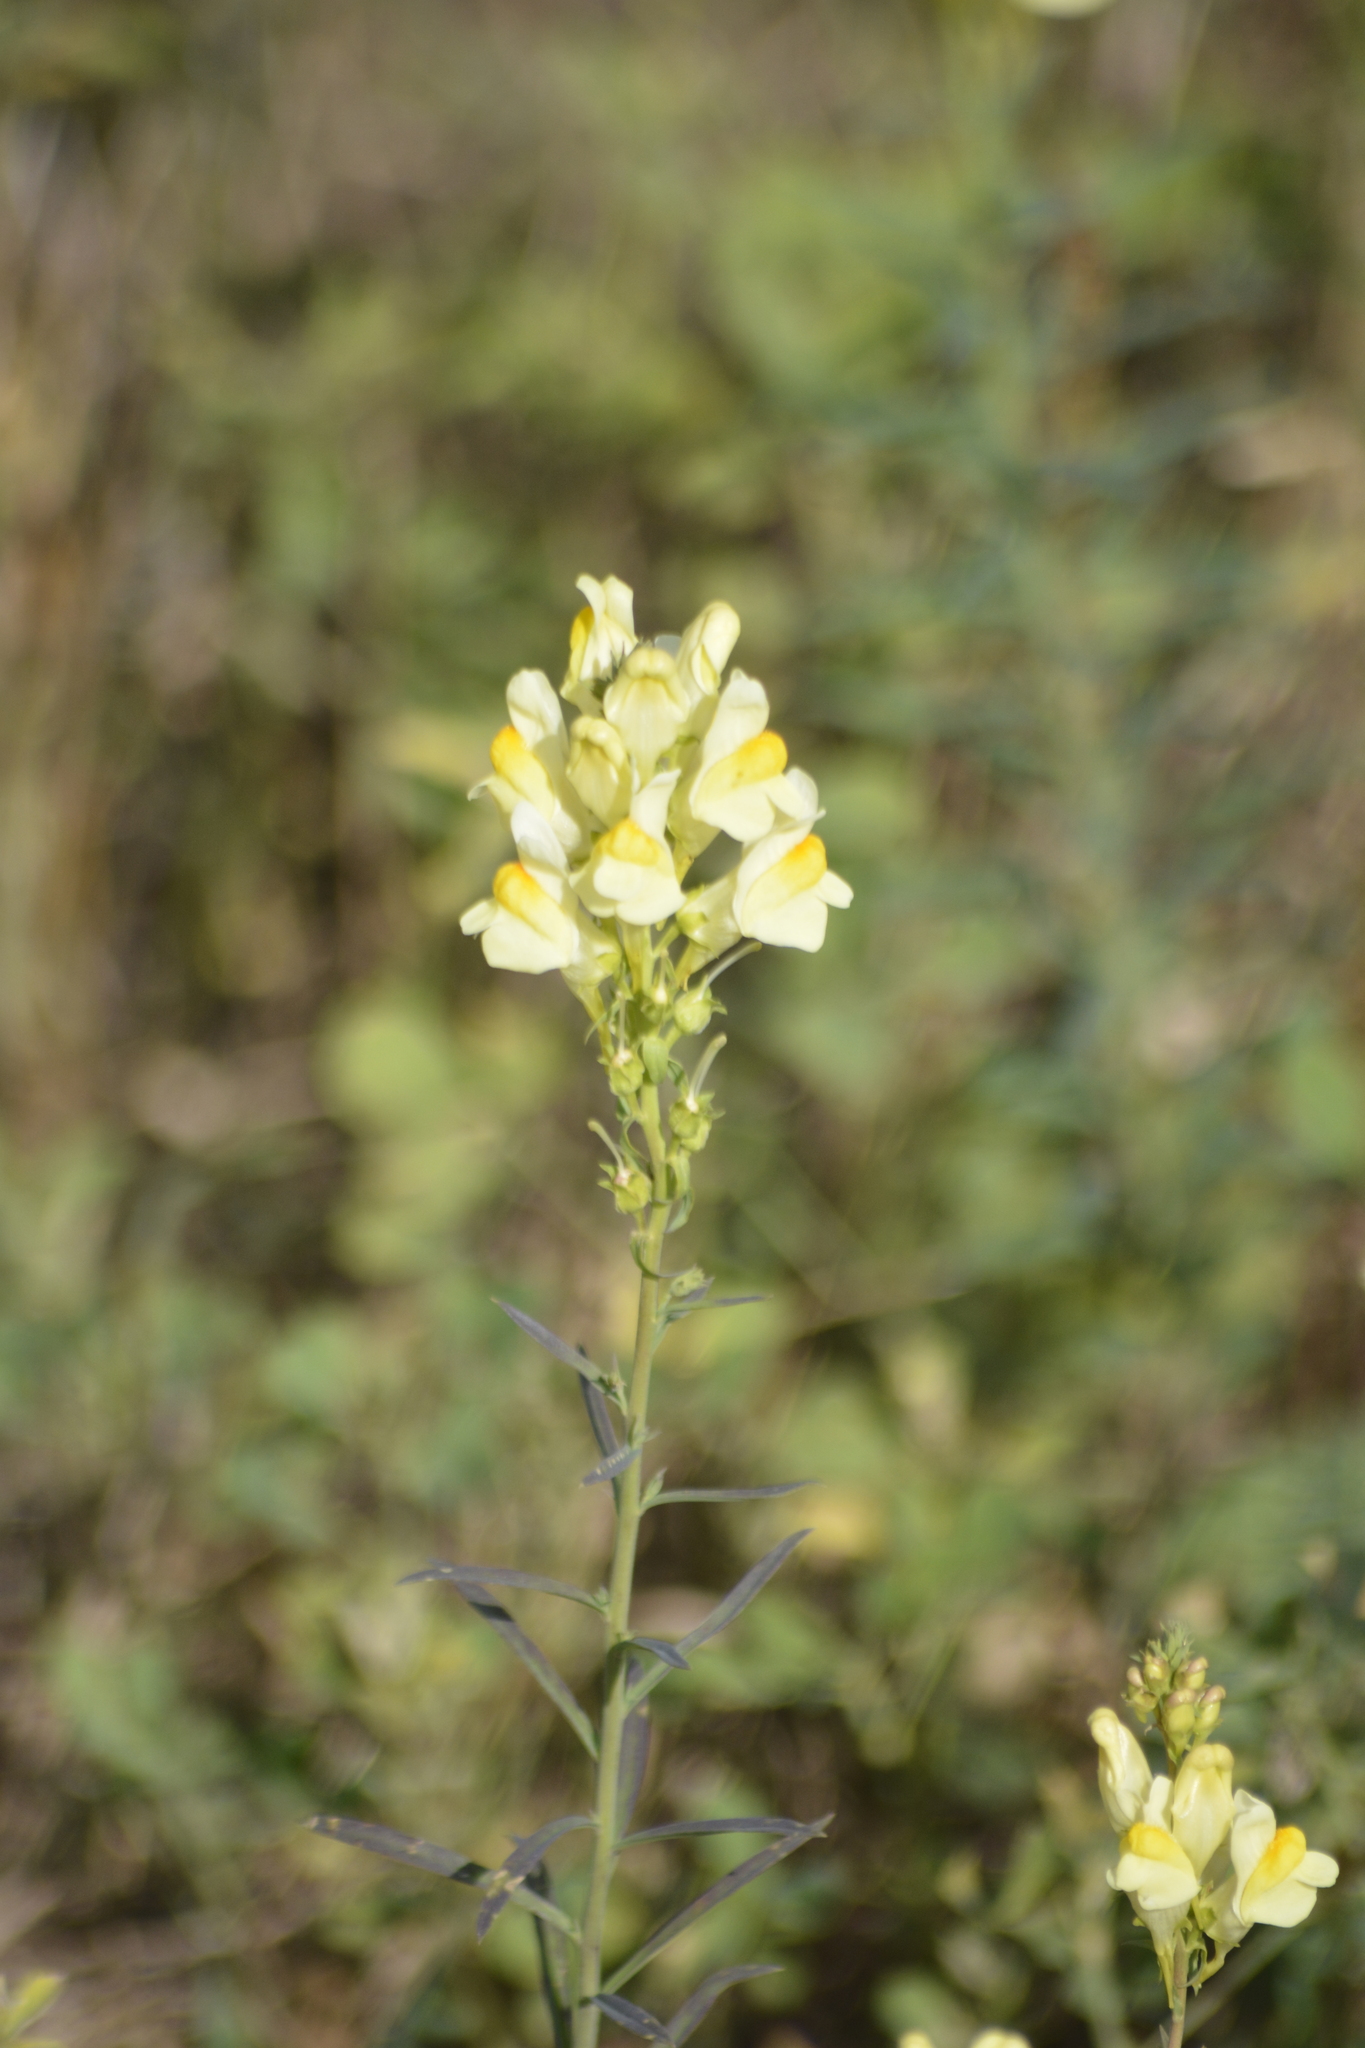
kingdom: Plantae
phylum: Tracheophyta
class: Magnoliopsida
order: Lamiales
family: Plantaginaceae
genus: Linaria
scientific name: Linaria vulgaris
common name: Butter and eggs
